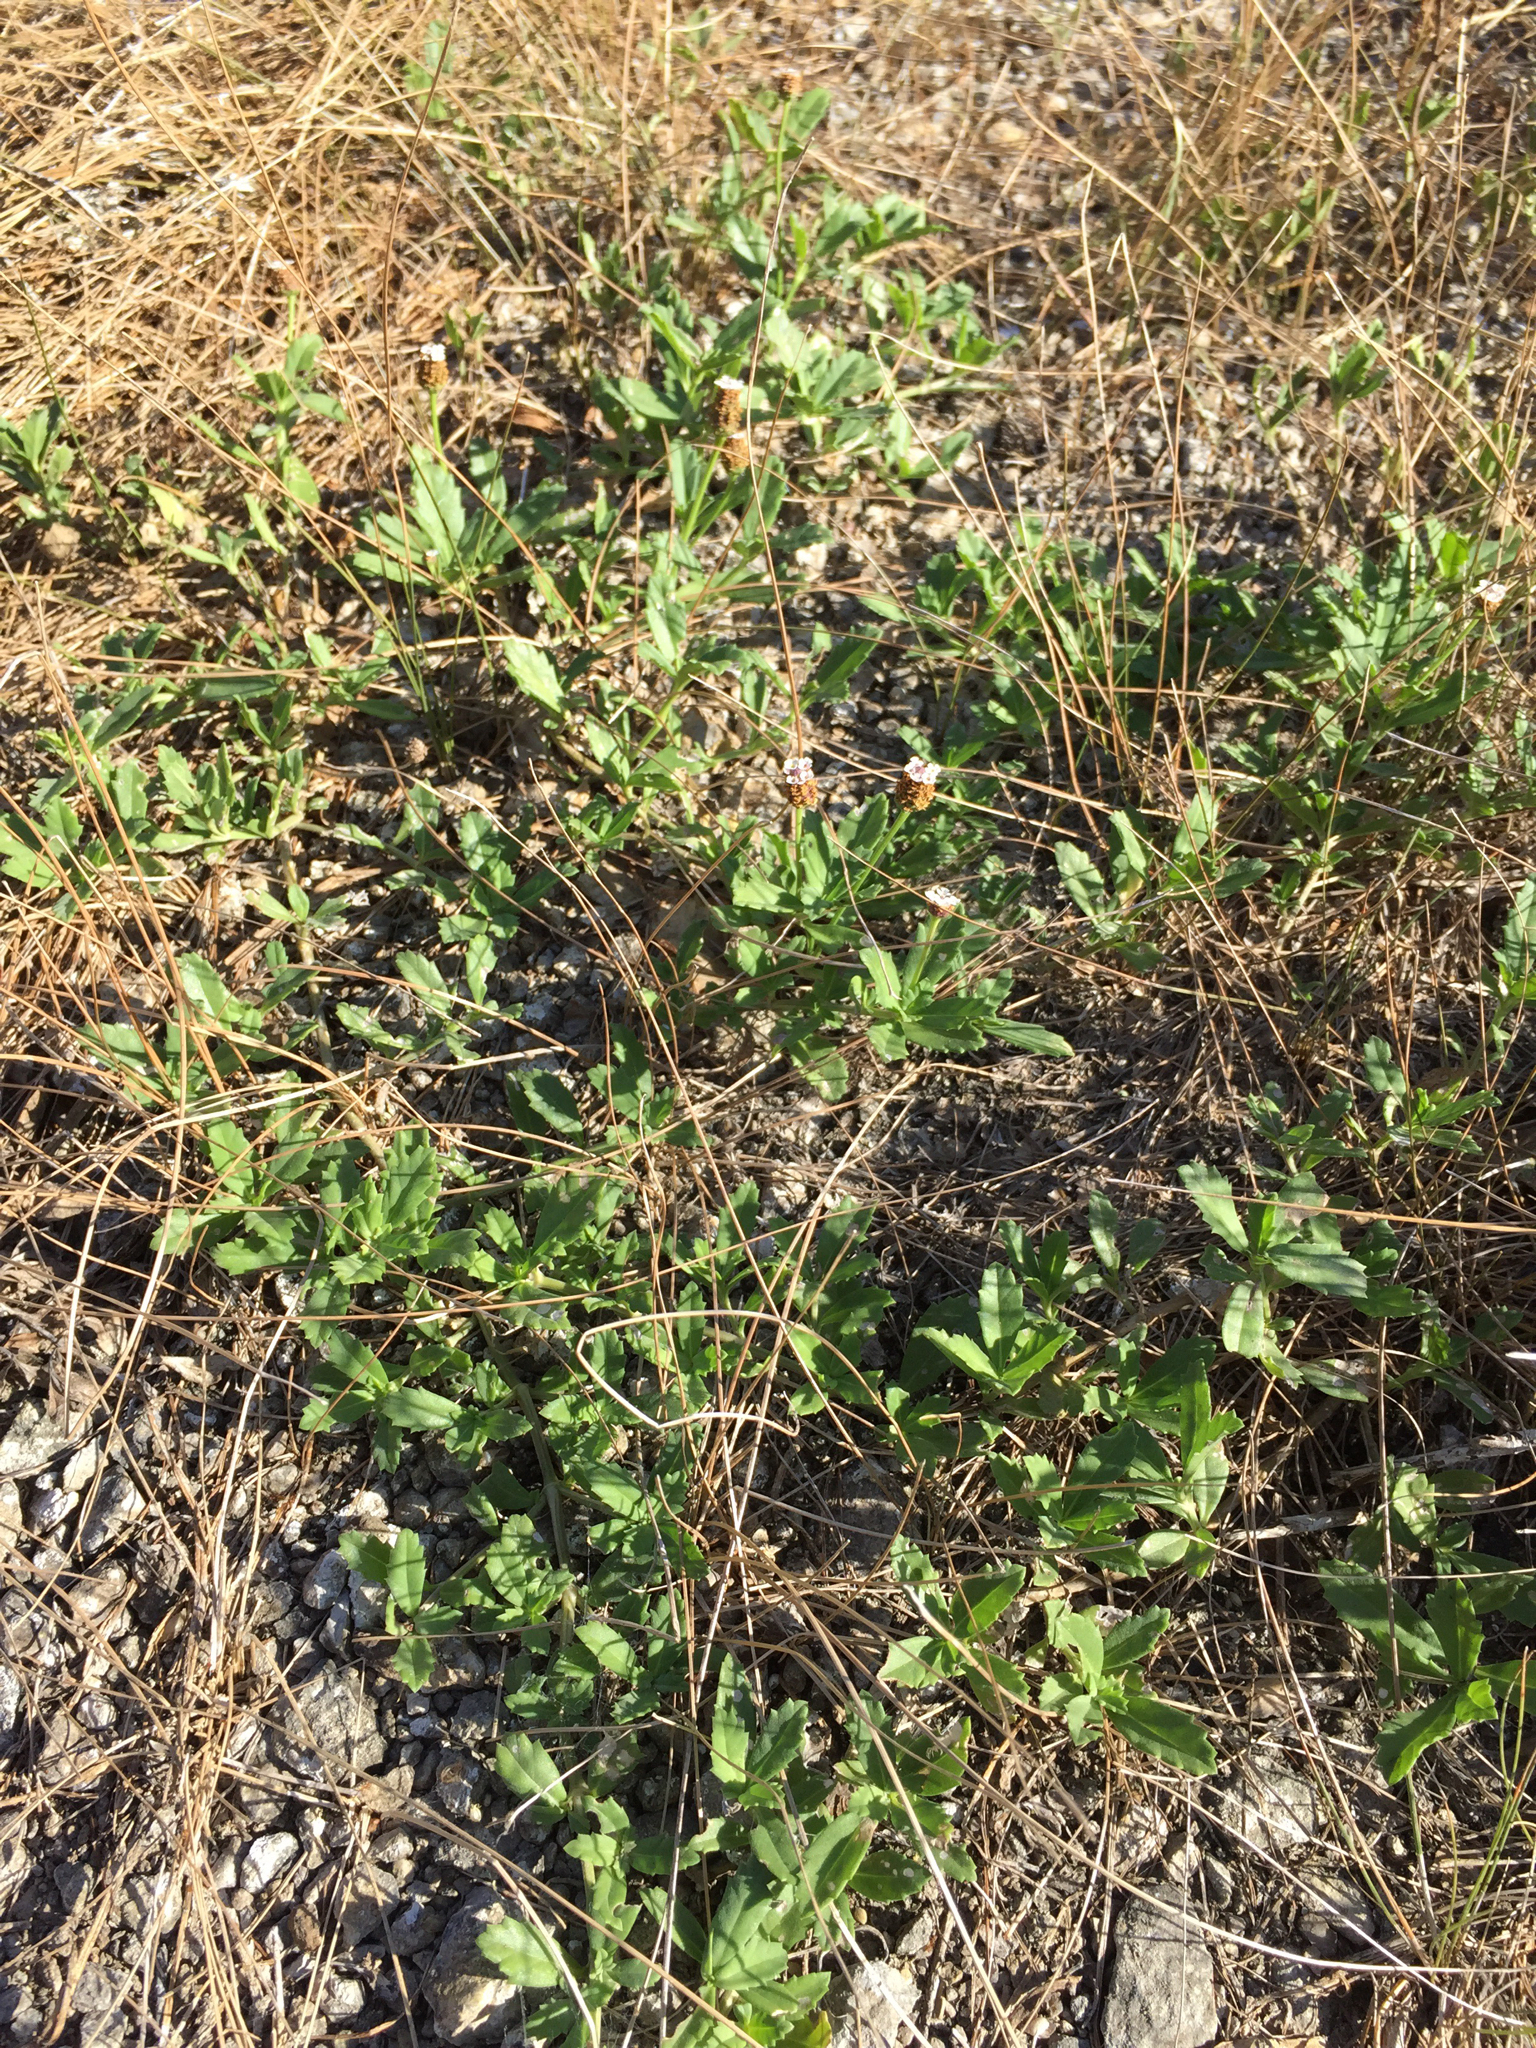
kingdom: Plantae
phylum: Tracheophyta
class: Magnoliopsida
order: Lamiales
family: Verbenaceae
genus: Phyla
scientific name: Phyla nodiflora
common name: Frogfruit
